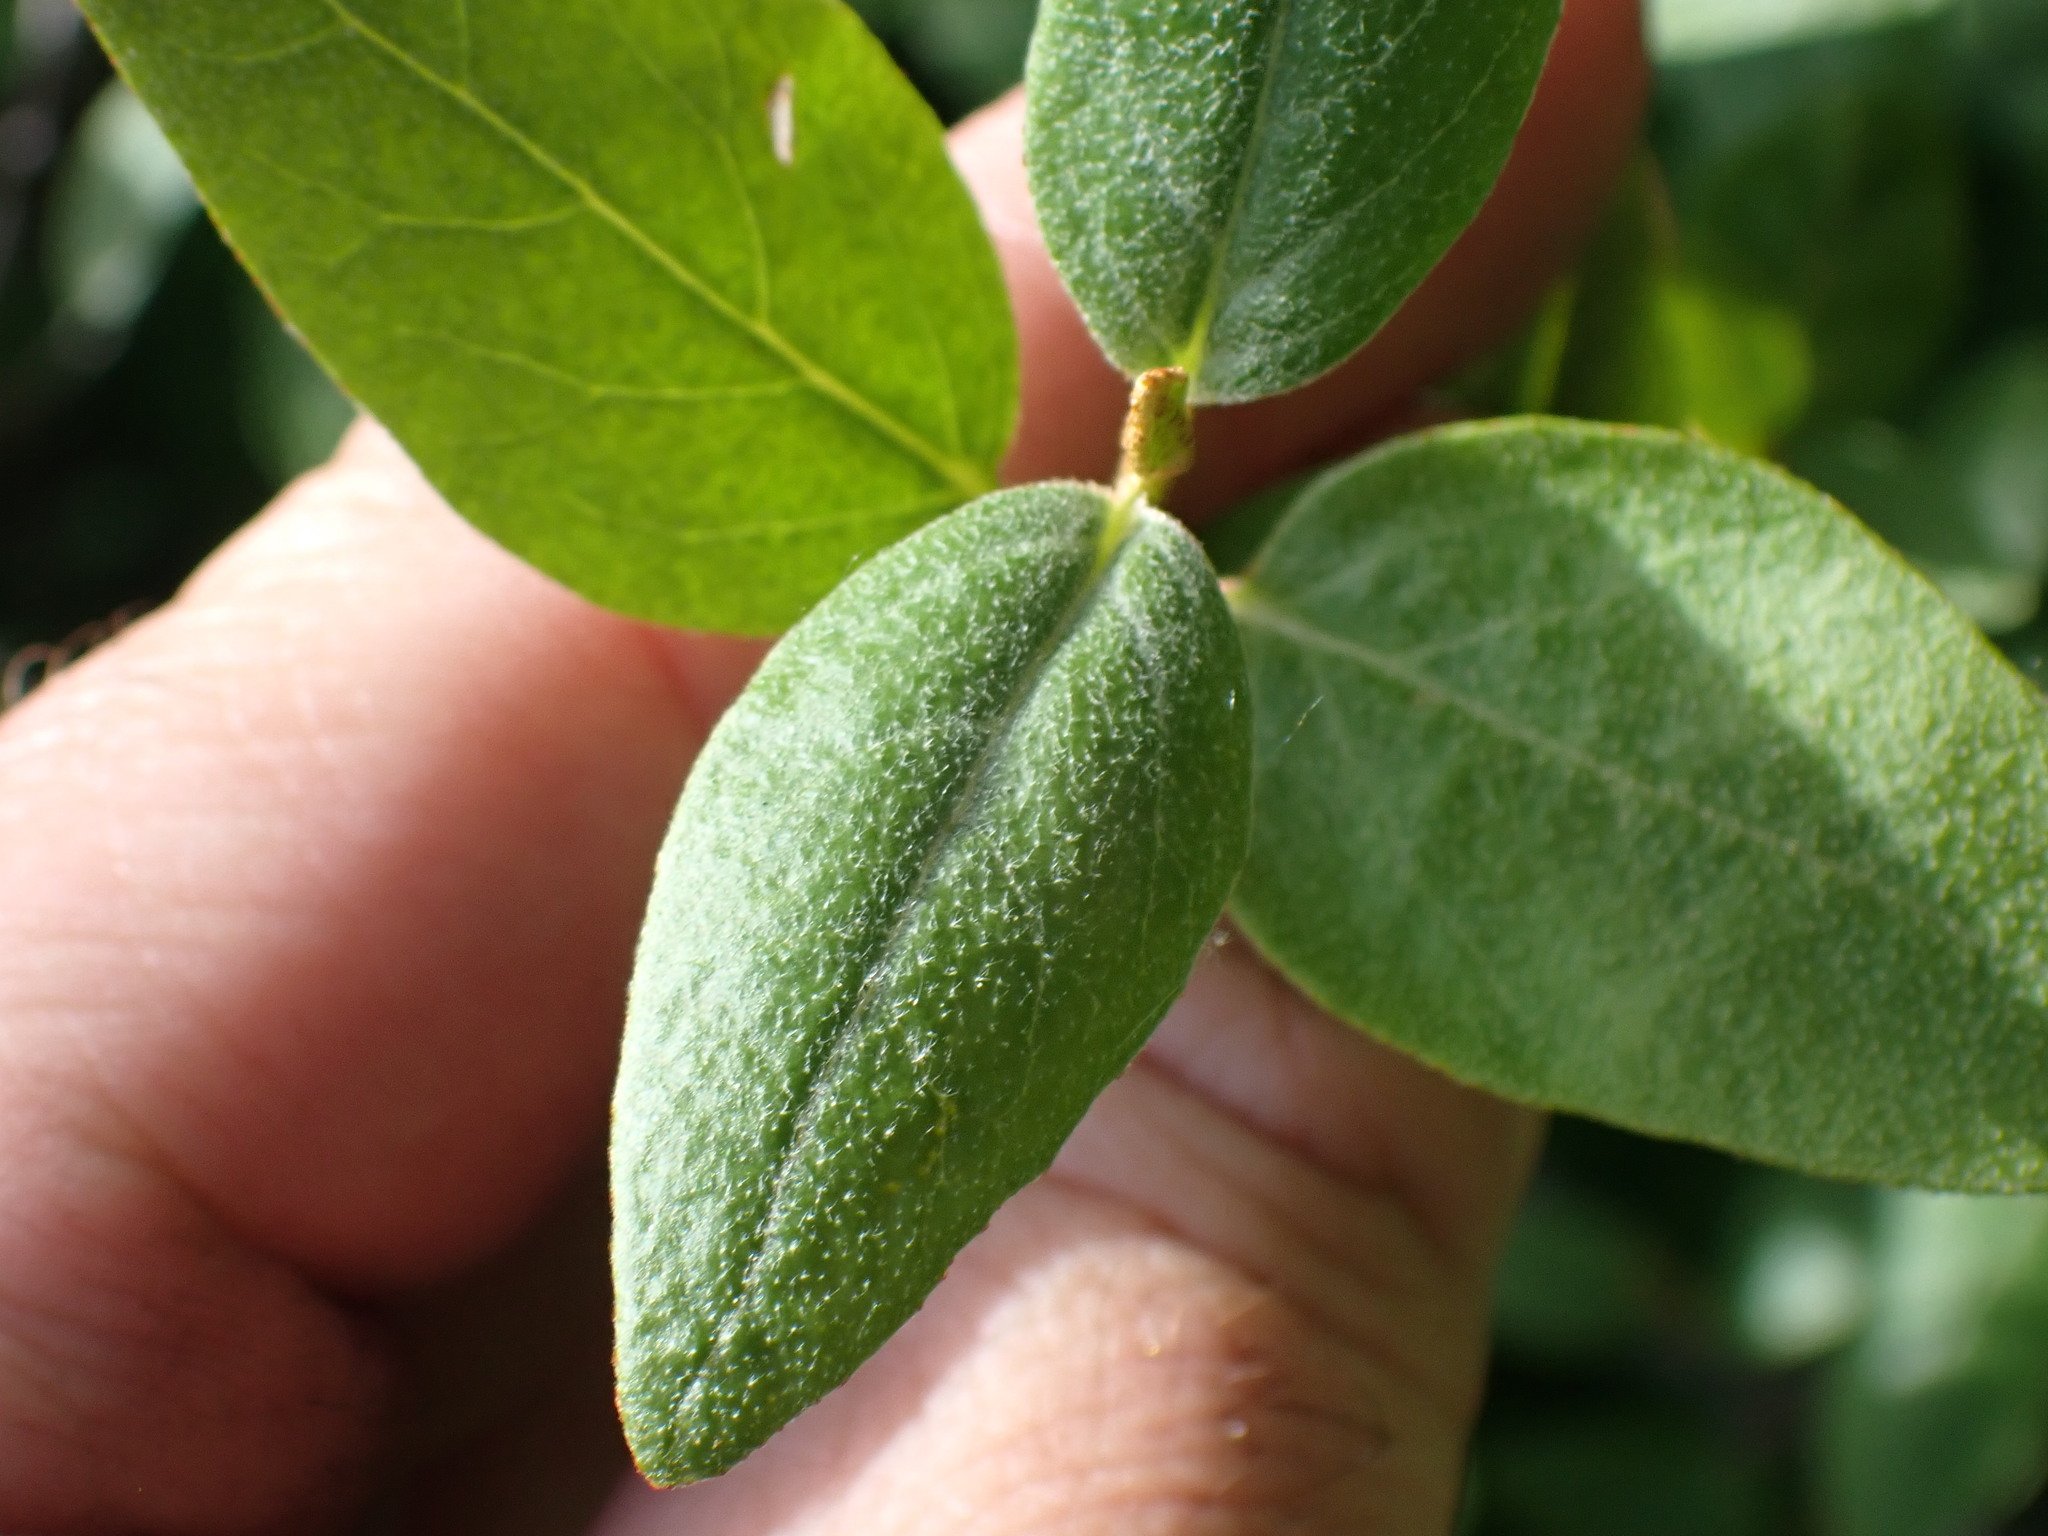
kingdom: Plantae
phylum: Tracheophyta
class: Magnoliopsida
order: Rosales
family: Elaeagnaceae
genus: Shepherdia
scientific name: Shepherdia canadensis
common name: Soapberry
